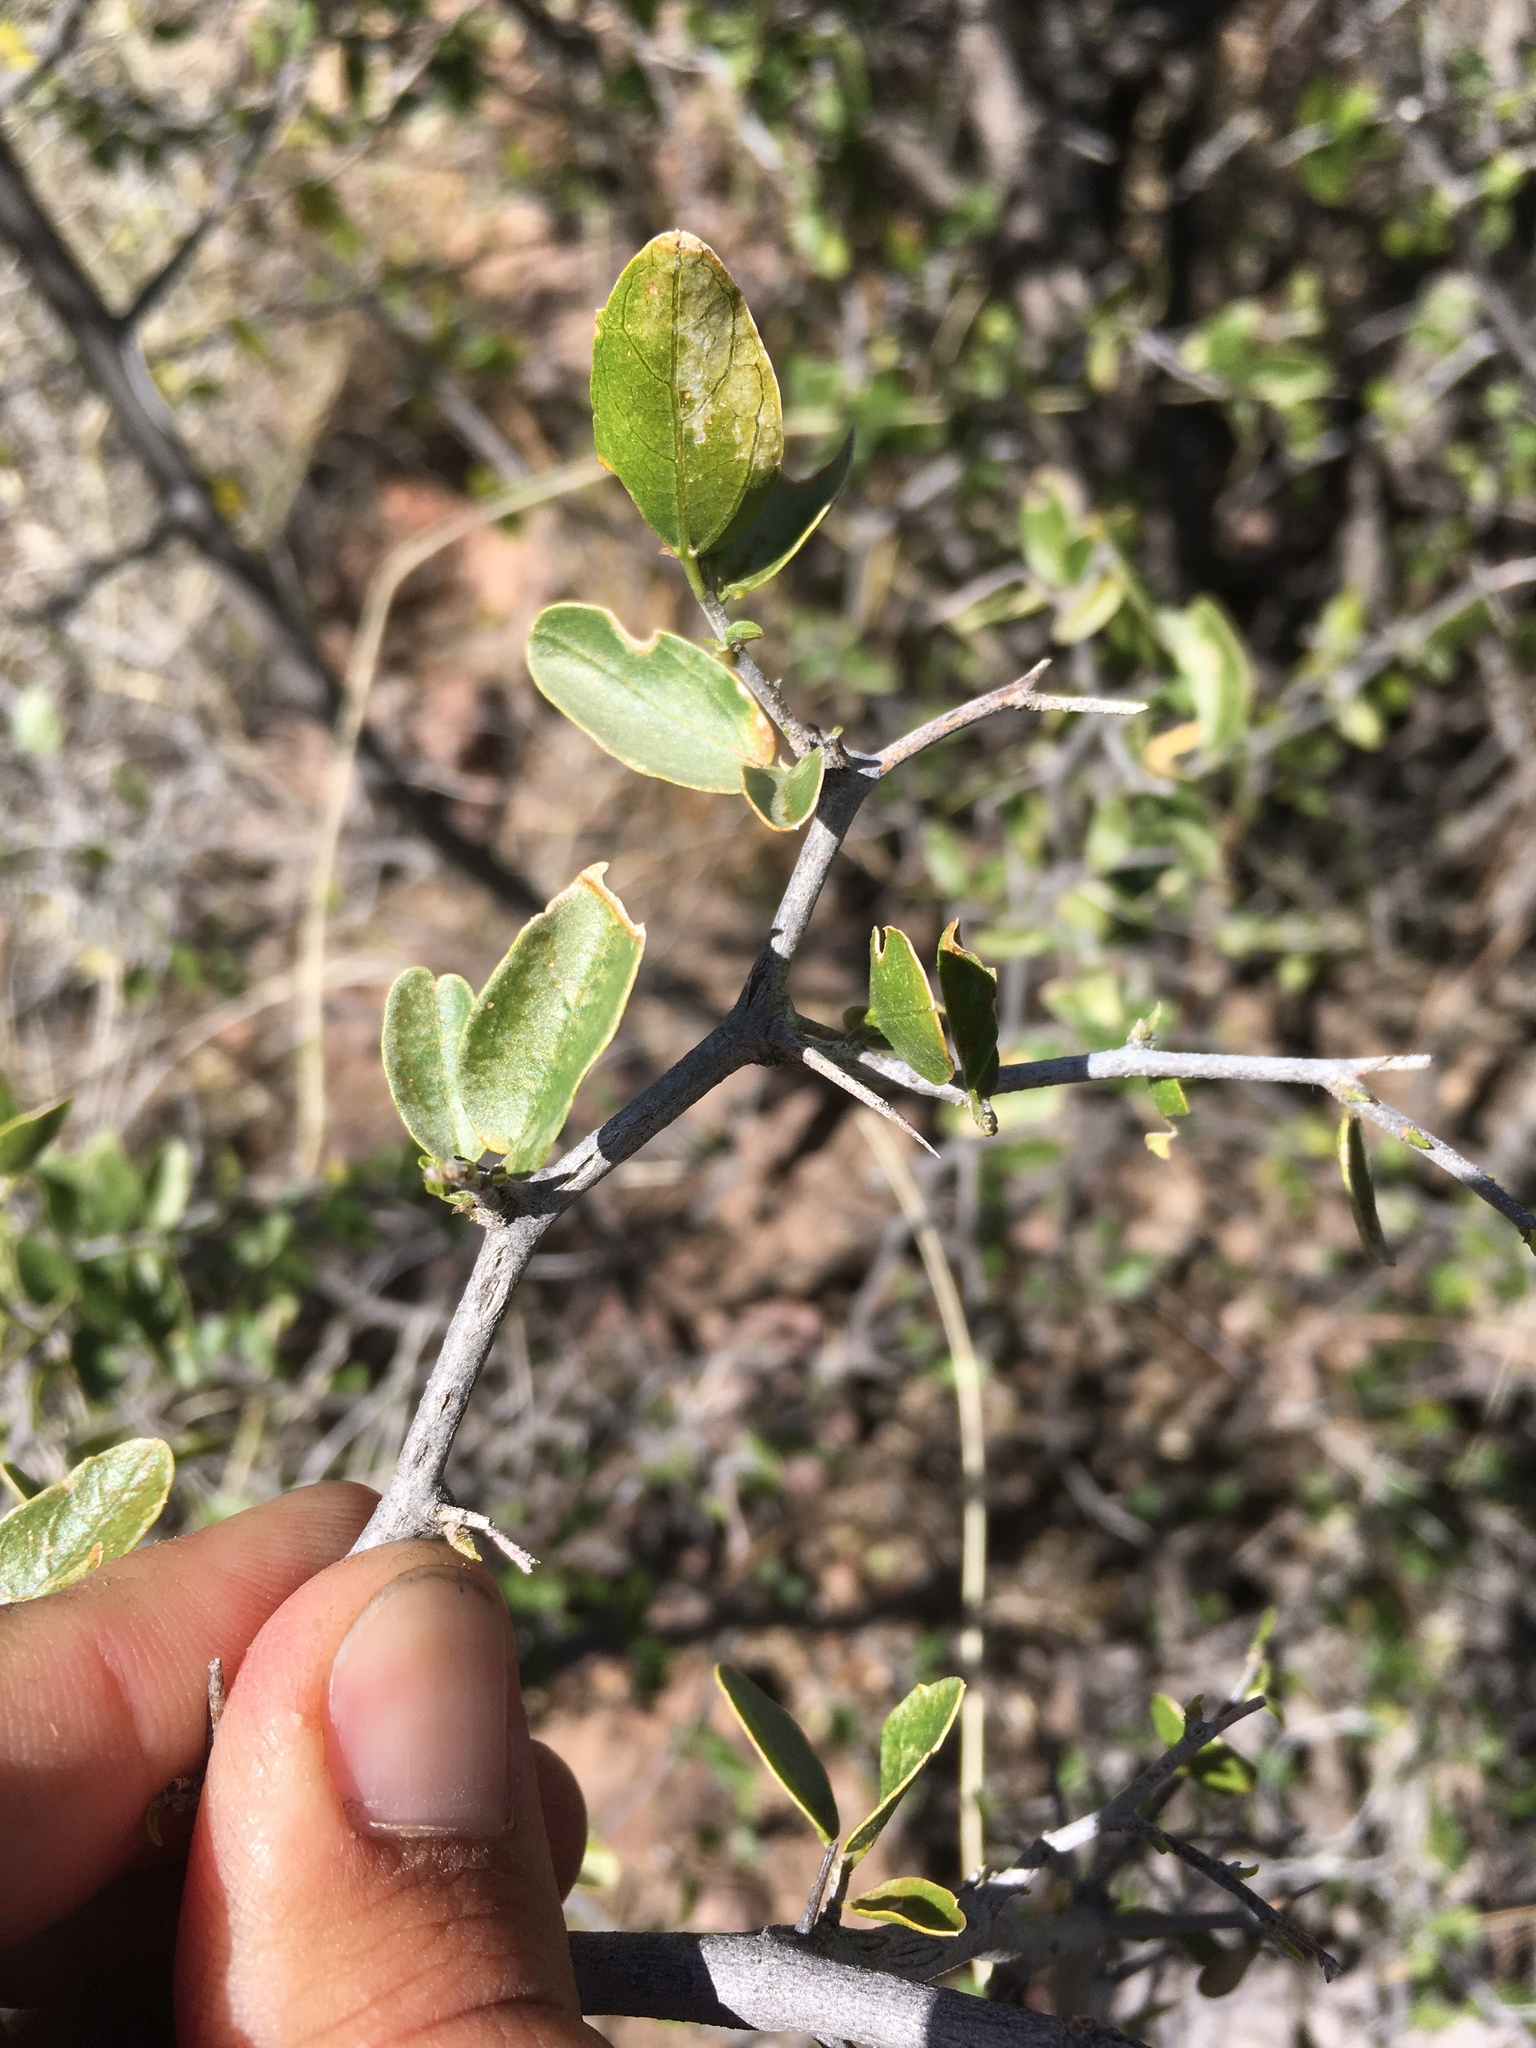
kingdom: Plantae
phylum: Tracheophyta
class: Magnoliopsida
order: Rosales
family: Cannabaceae
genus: Celtis
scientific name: Celtis pallida
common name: Desert hackberry
